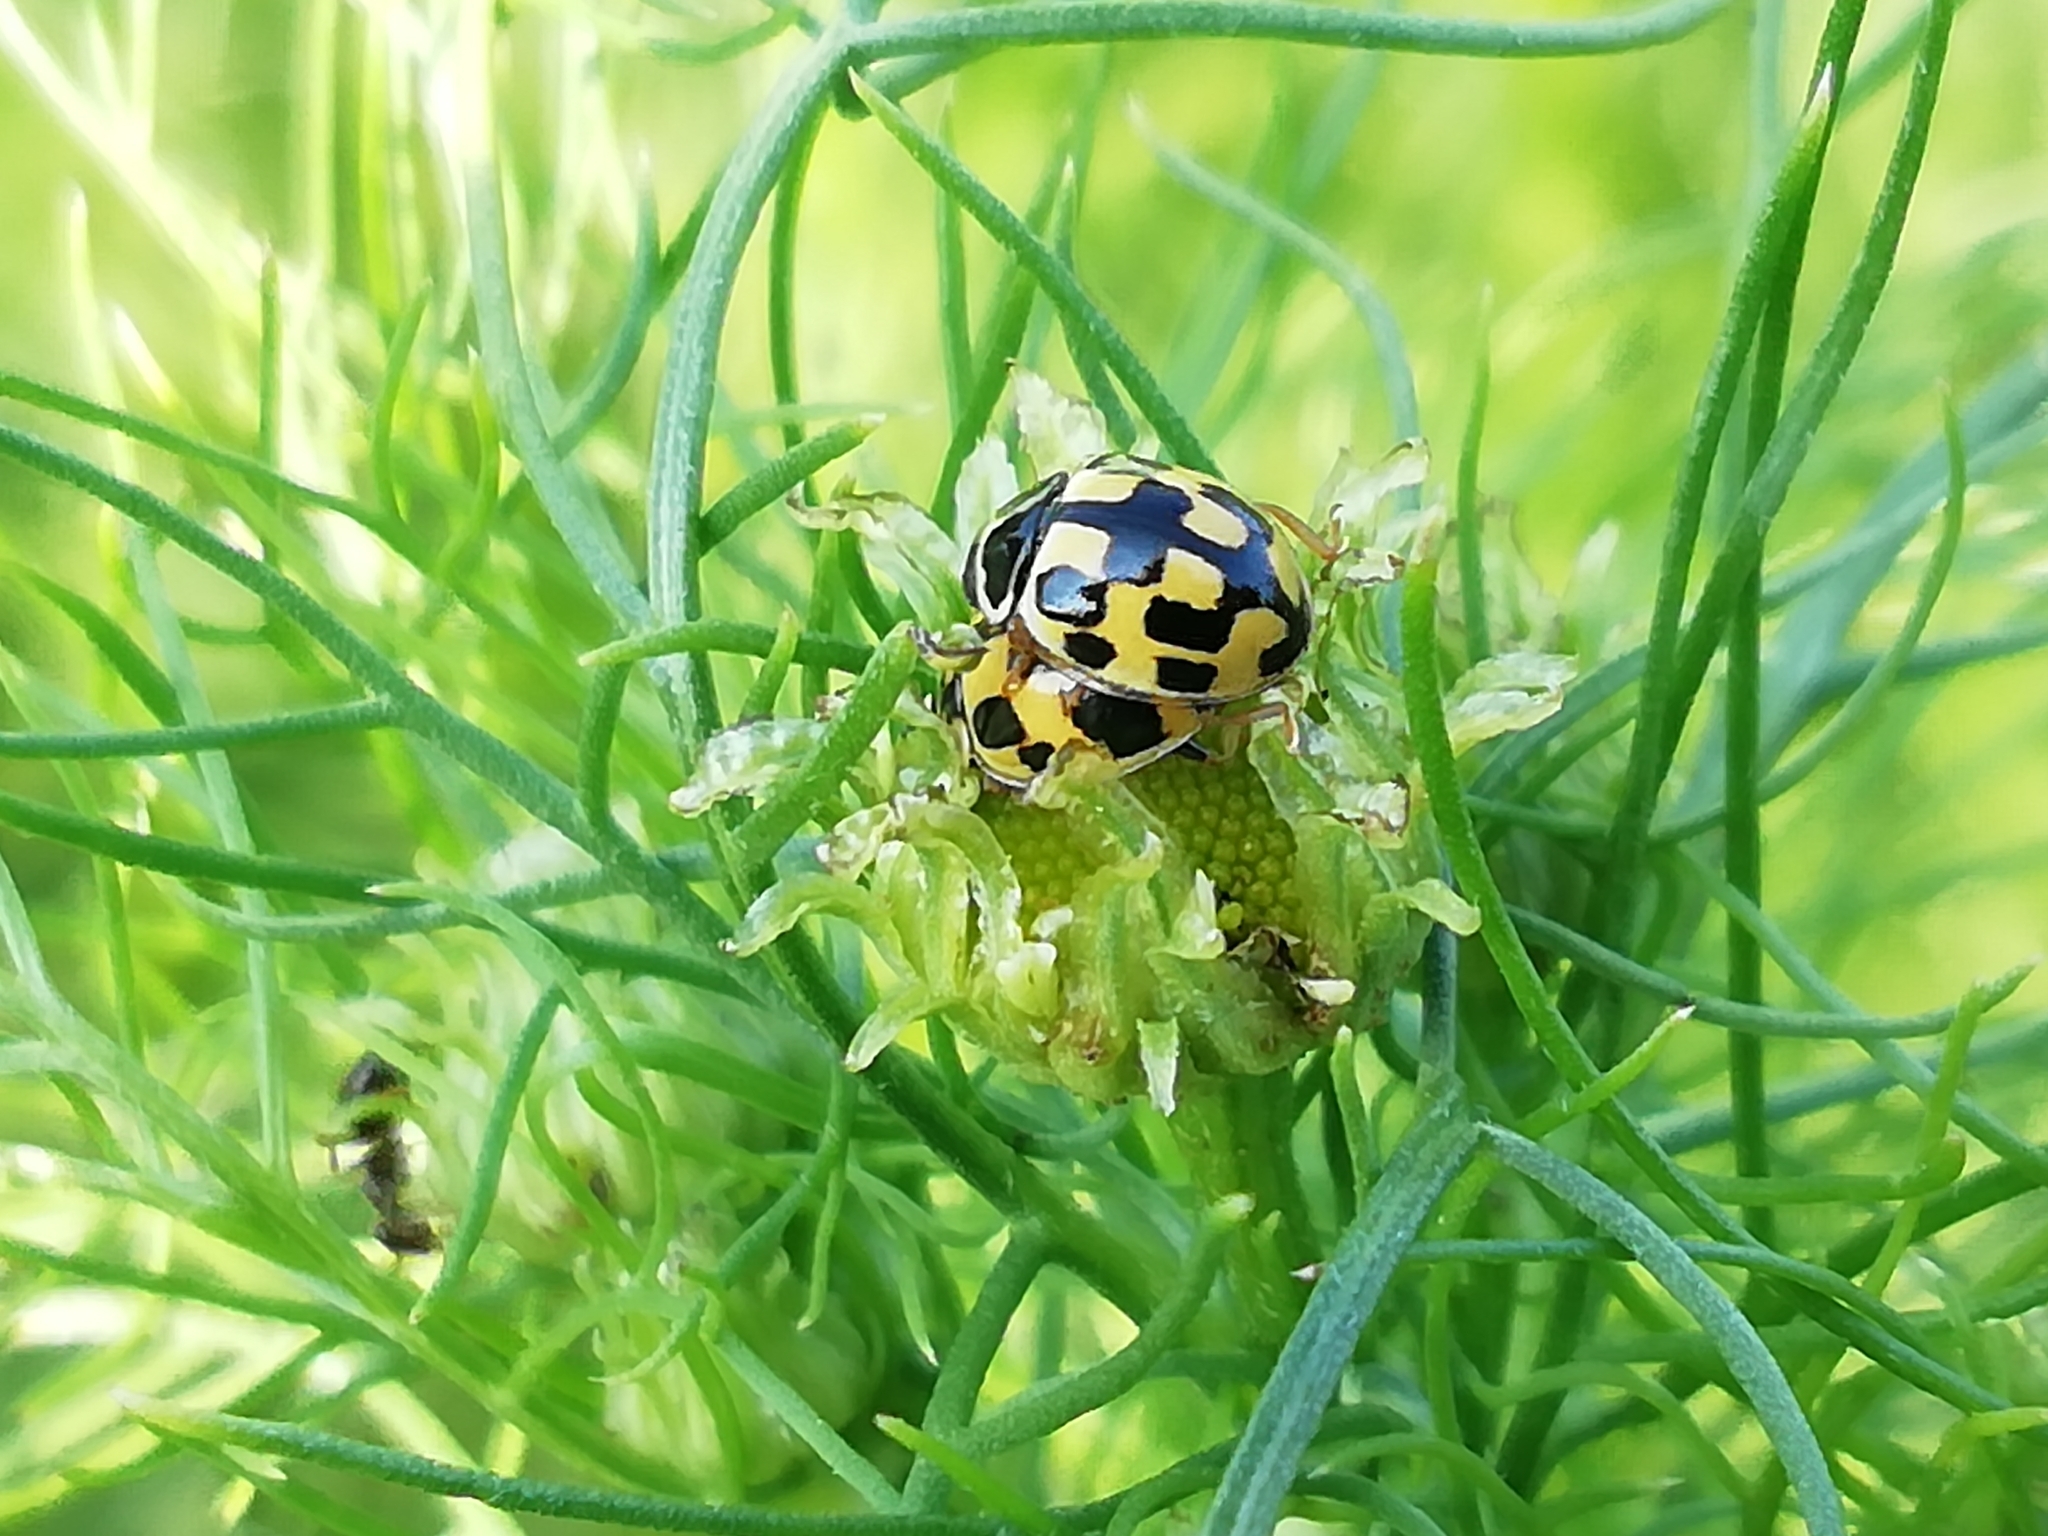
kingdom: Animalia
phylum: Arthropoda
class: Insecta
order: Coleoptera
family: Coccinellidae
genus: Propylaea
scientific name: Propylaea quatuordecimpunctata
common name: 14-spotted ladybird beetle
